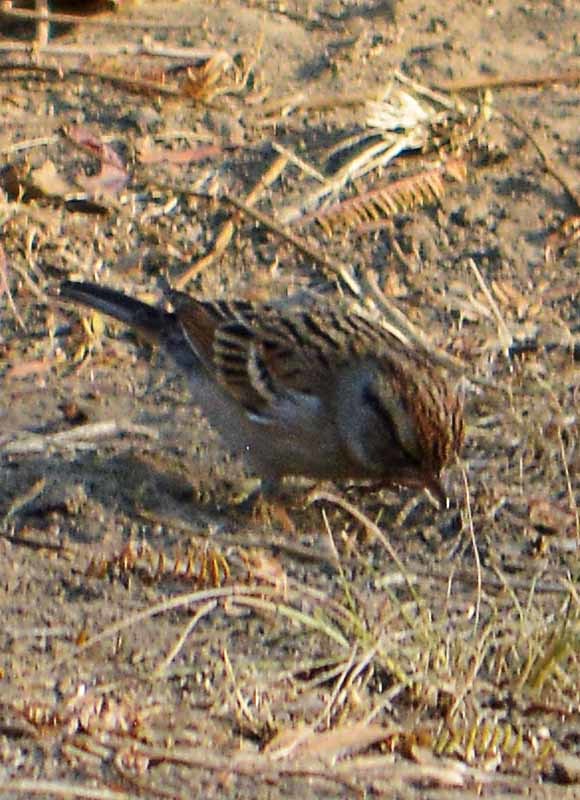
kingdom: Animalia
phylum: Chordata
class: Aves
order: Passeriformes
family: Passerellidae
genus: Spizella
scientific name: Spizella passerina
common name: Chipping sparrow
